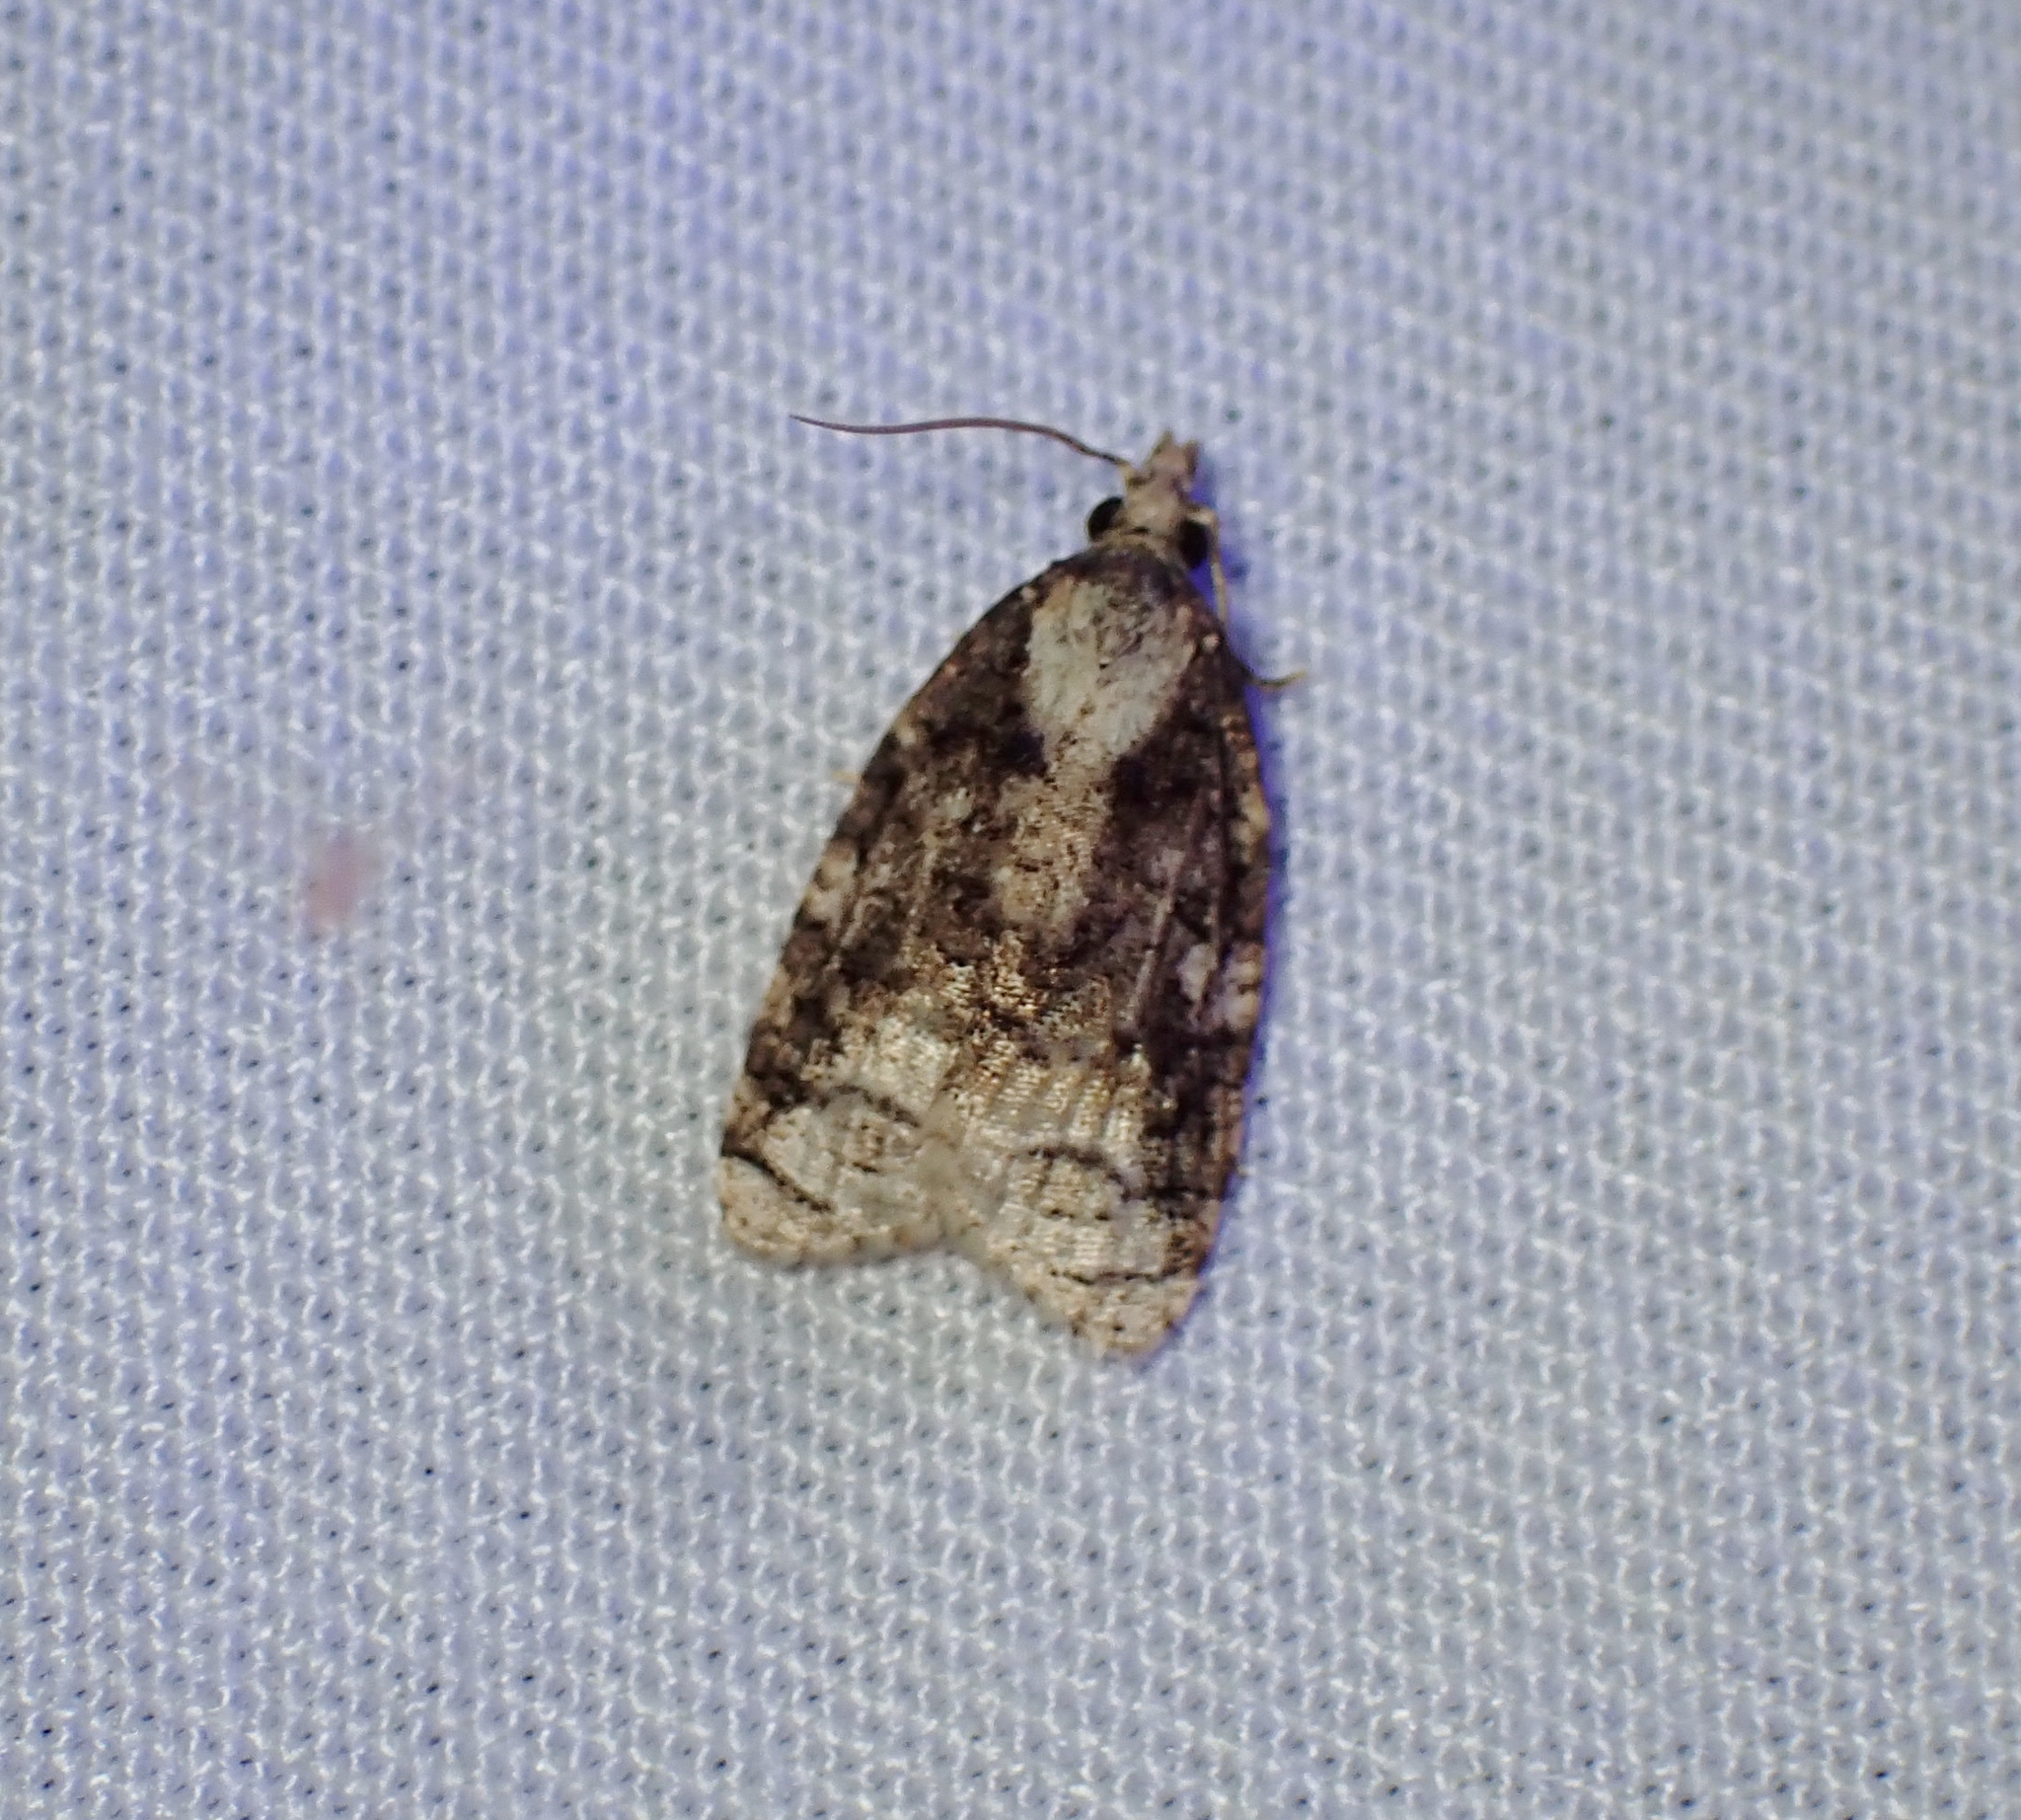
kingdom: Animalia
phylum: Arthropoda
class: Insecta
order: Lepidoptera
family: Tortricidae
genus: Platynota
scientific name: Platynota exasperatana
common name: Exasperating platynota moth
